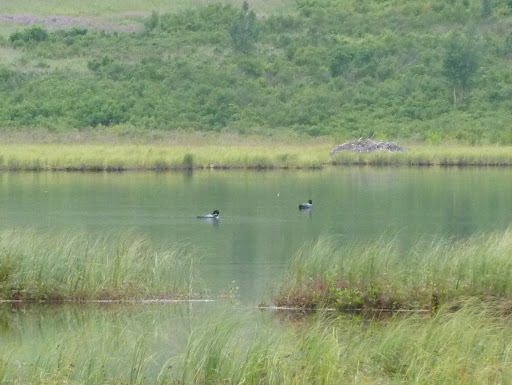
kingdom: Animalia
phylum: Chordata
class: Aves
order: Gaviiformes
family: Gaviidae
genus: Gavia
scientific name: Gavia immer
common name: Common loon
